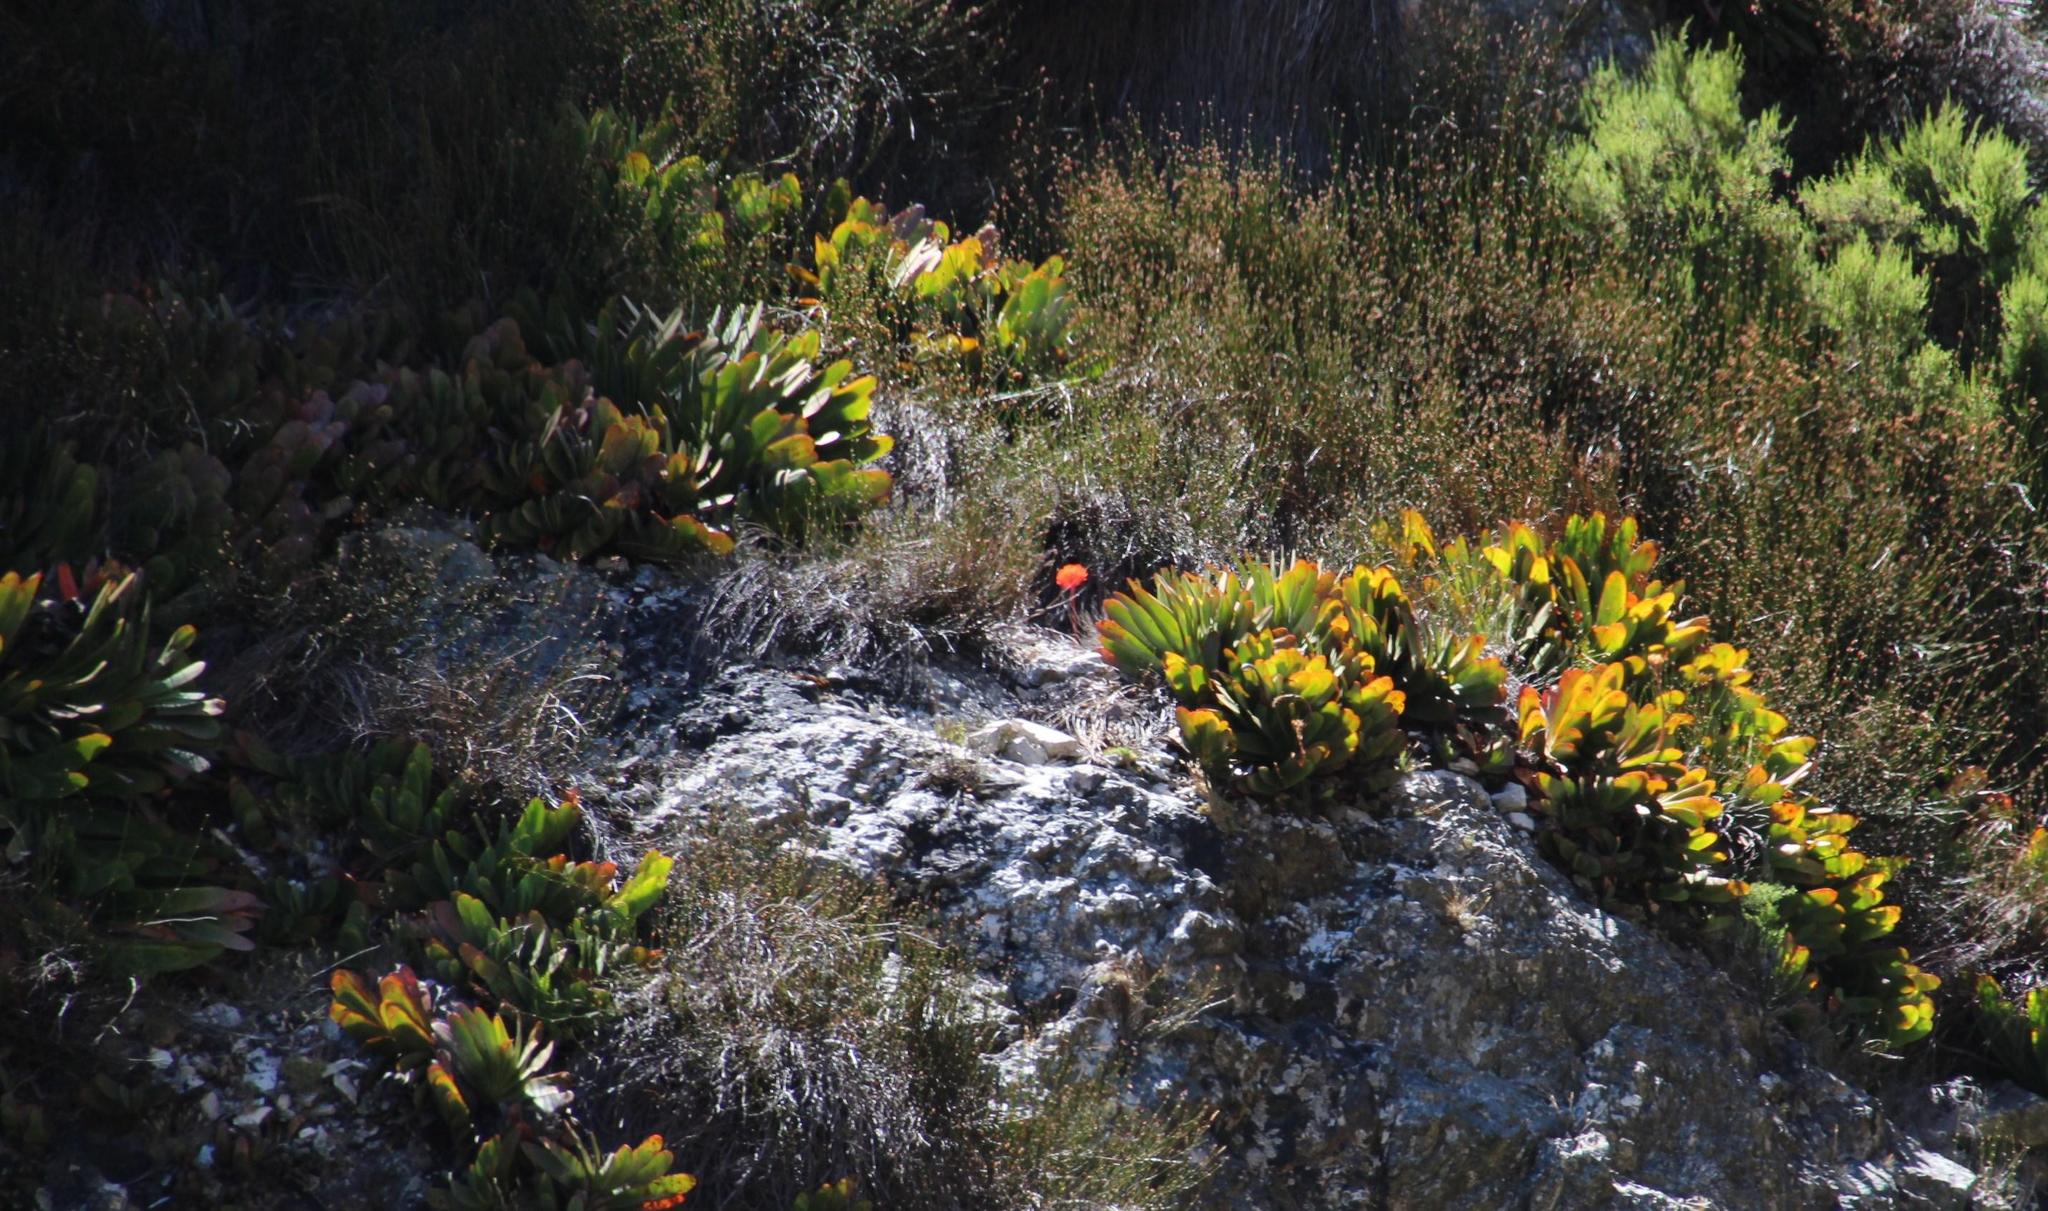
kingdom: Plantae
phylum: Tracheophyta
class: Liliopsida
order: Asparagales
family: Asphodelaceae
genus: Kumara
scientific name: Kumara haemanthifolia
